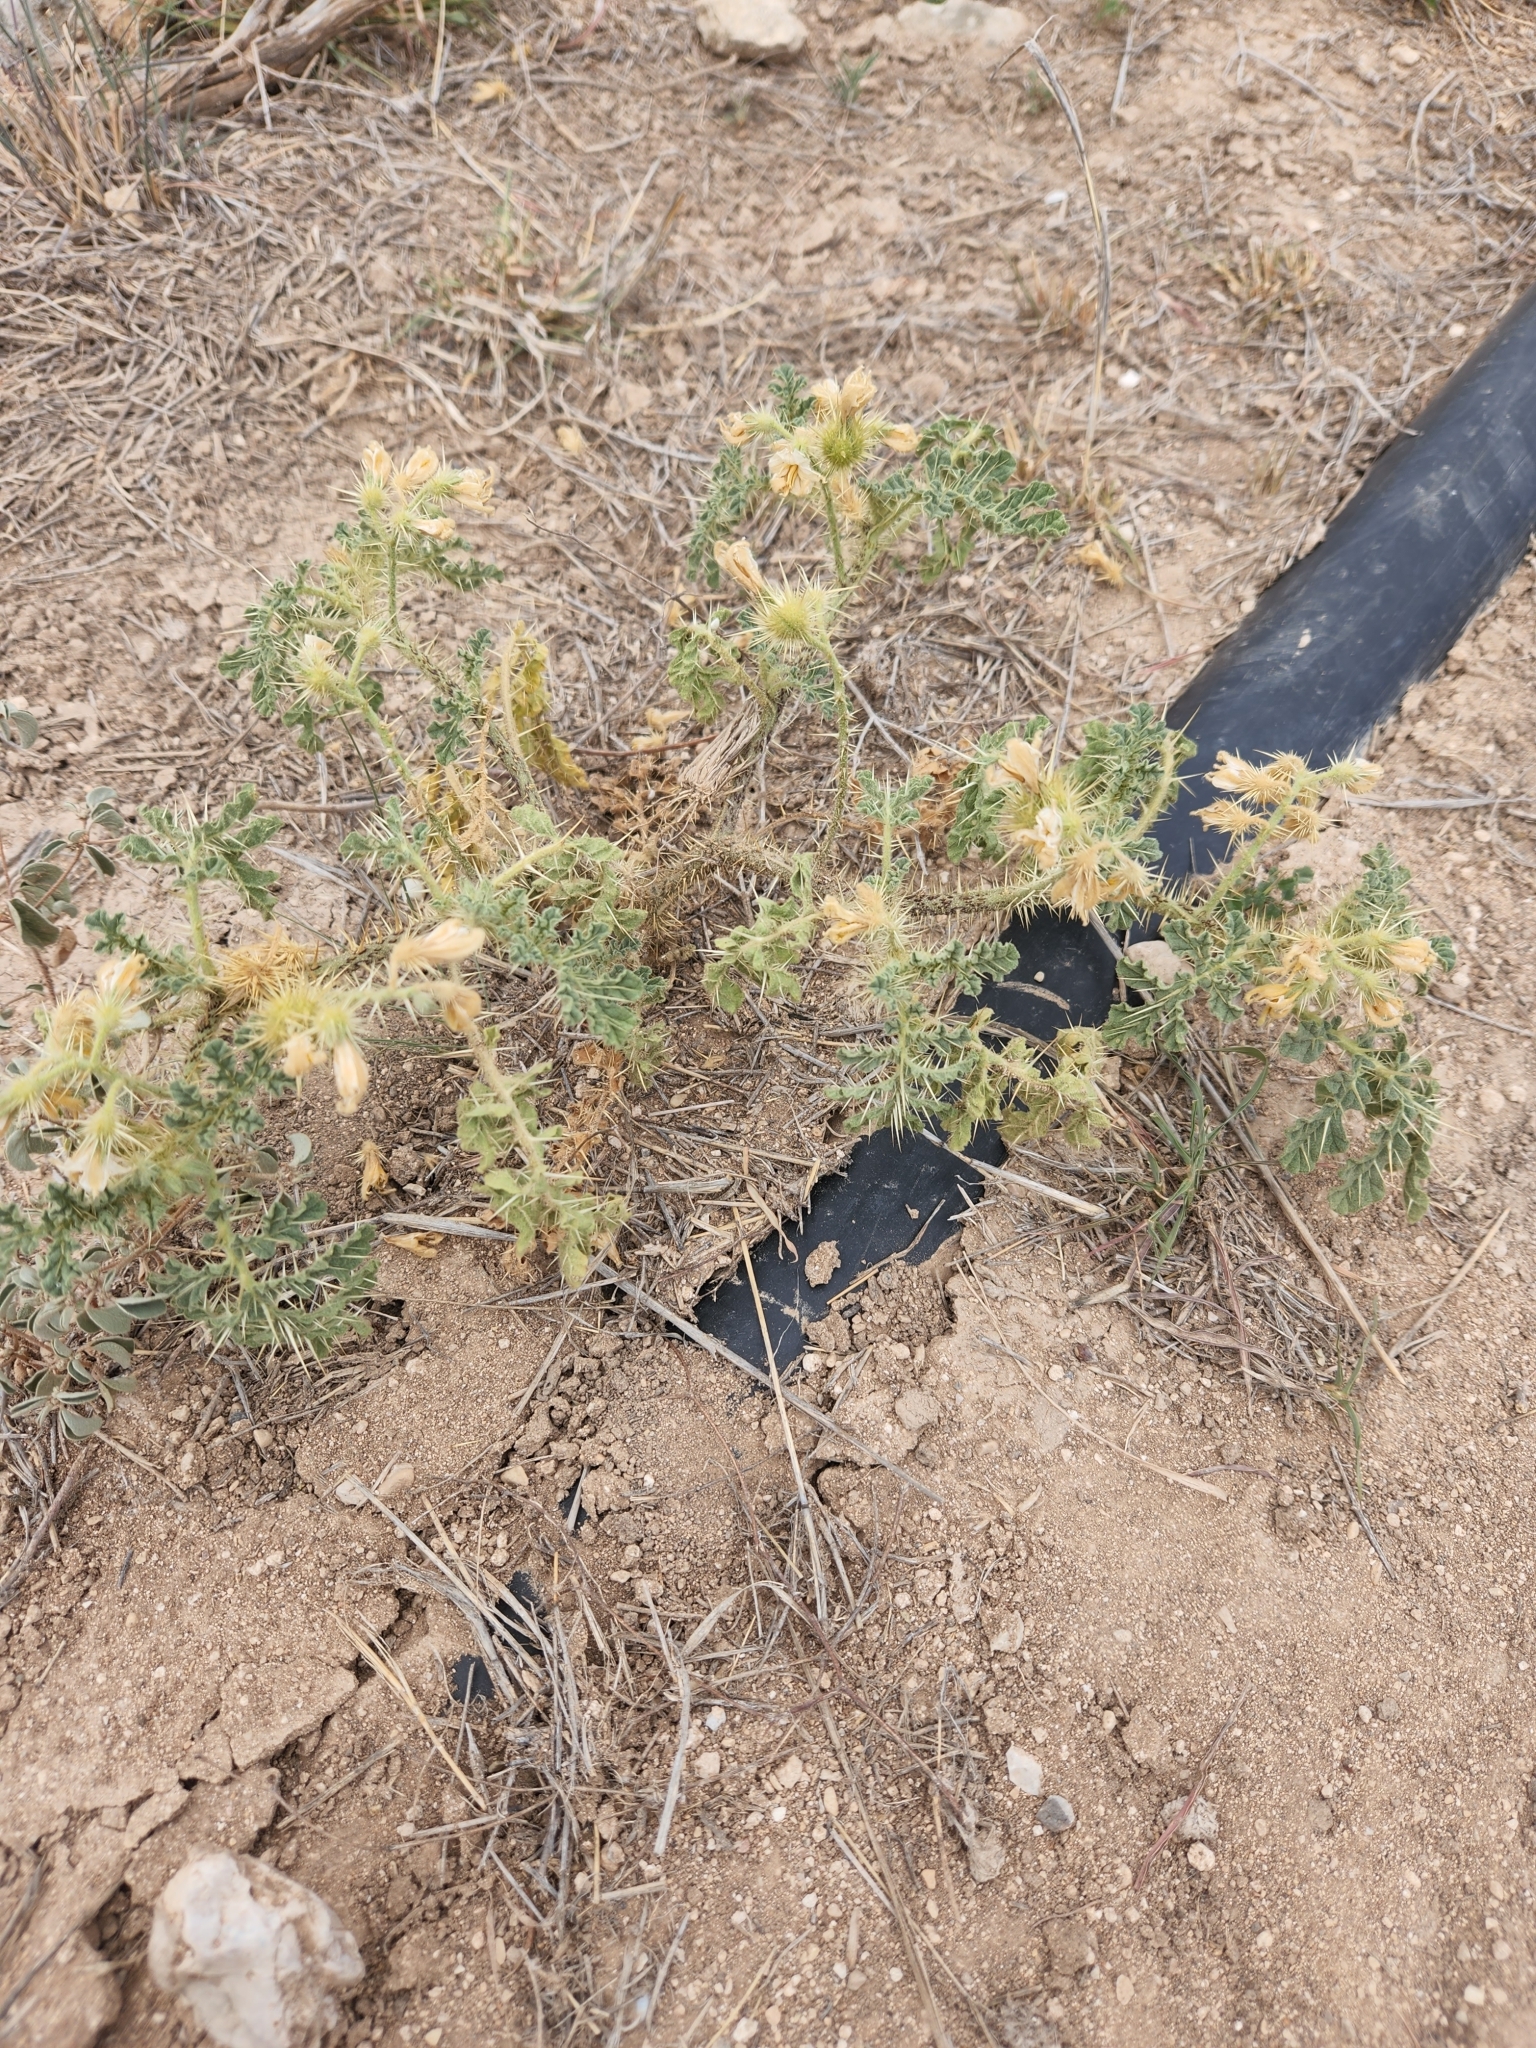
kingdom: Plantae
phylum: Tracheophyta
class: Magnoliopsida
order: Solanales
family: Solanaceae
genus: Solanum
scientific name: Solanum angustifolium
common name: Buffalobur nightshade
